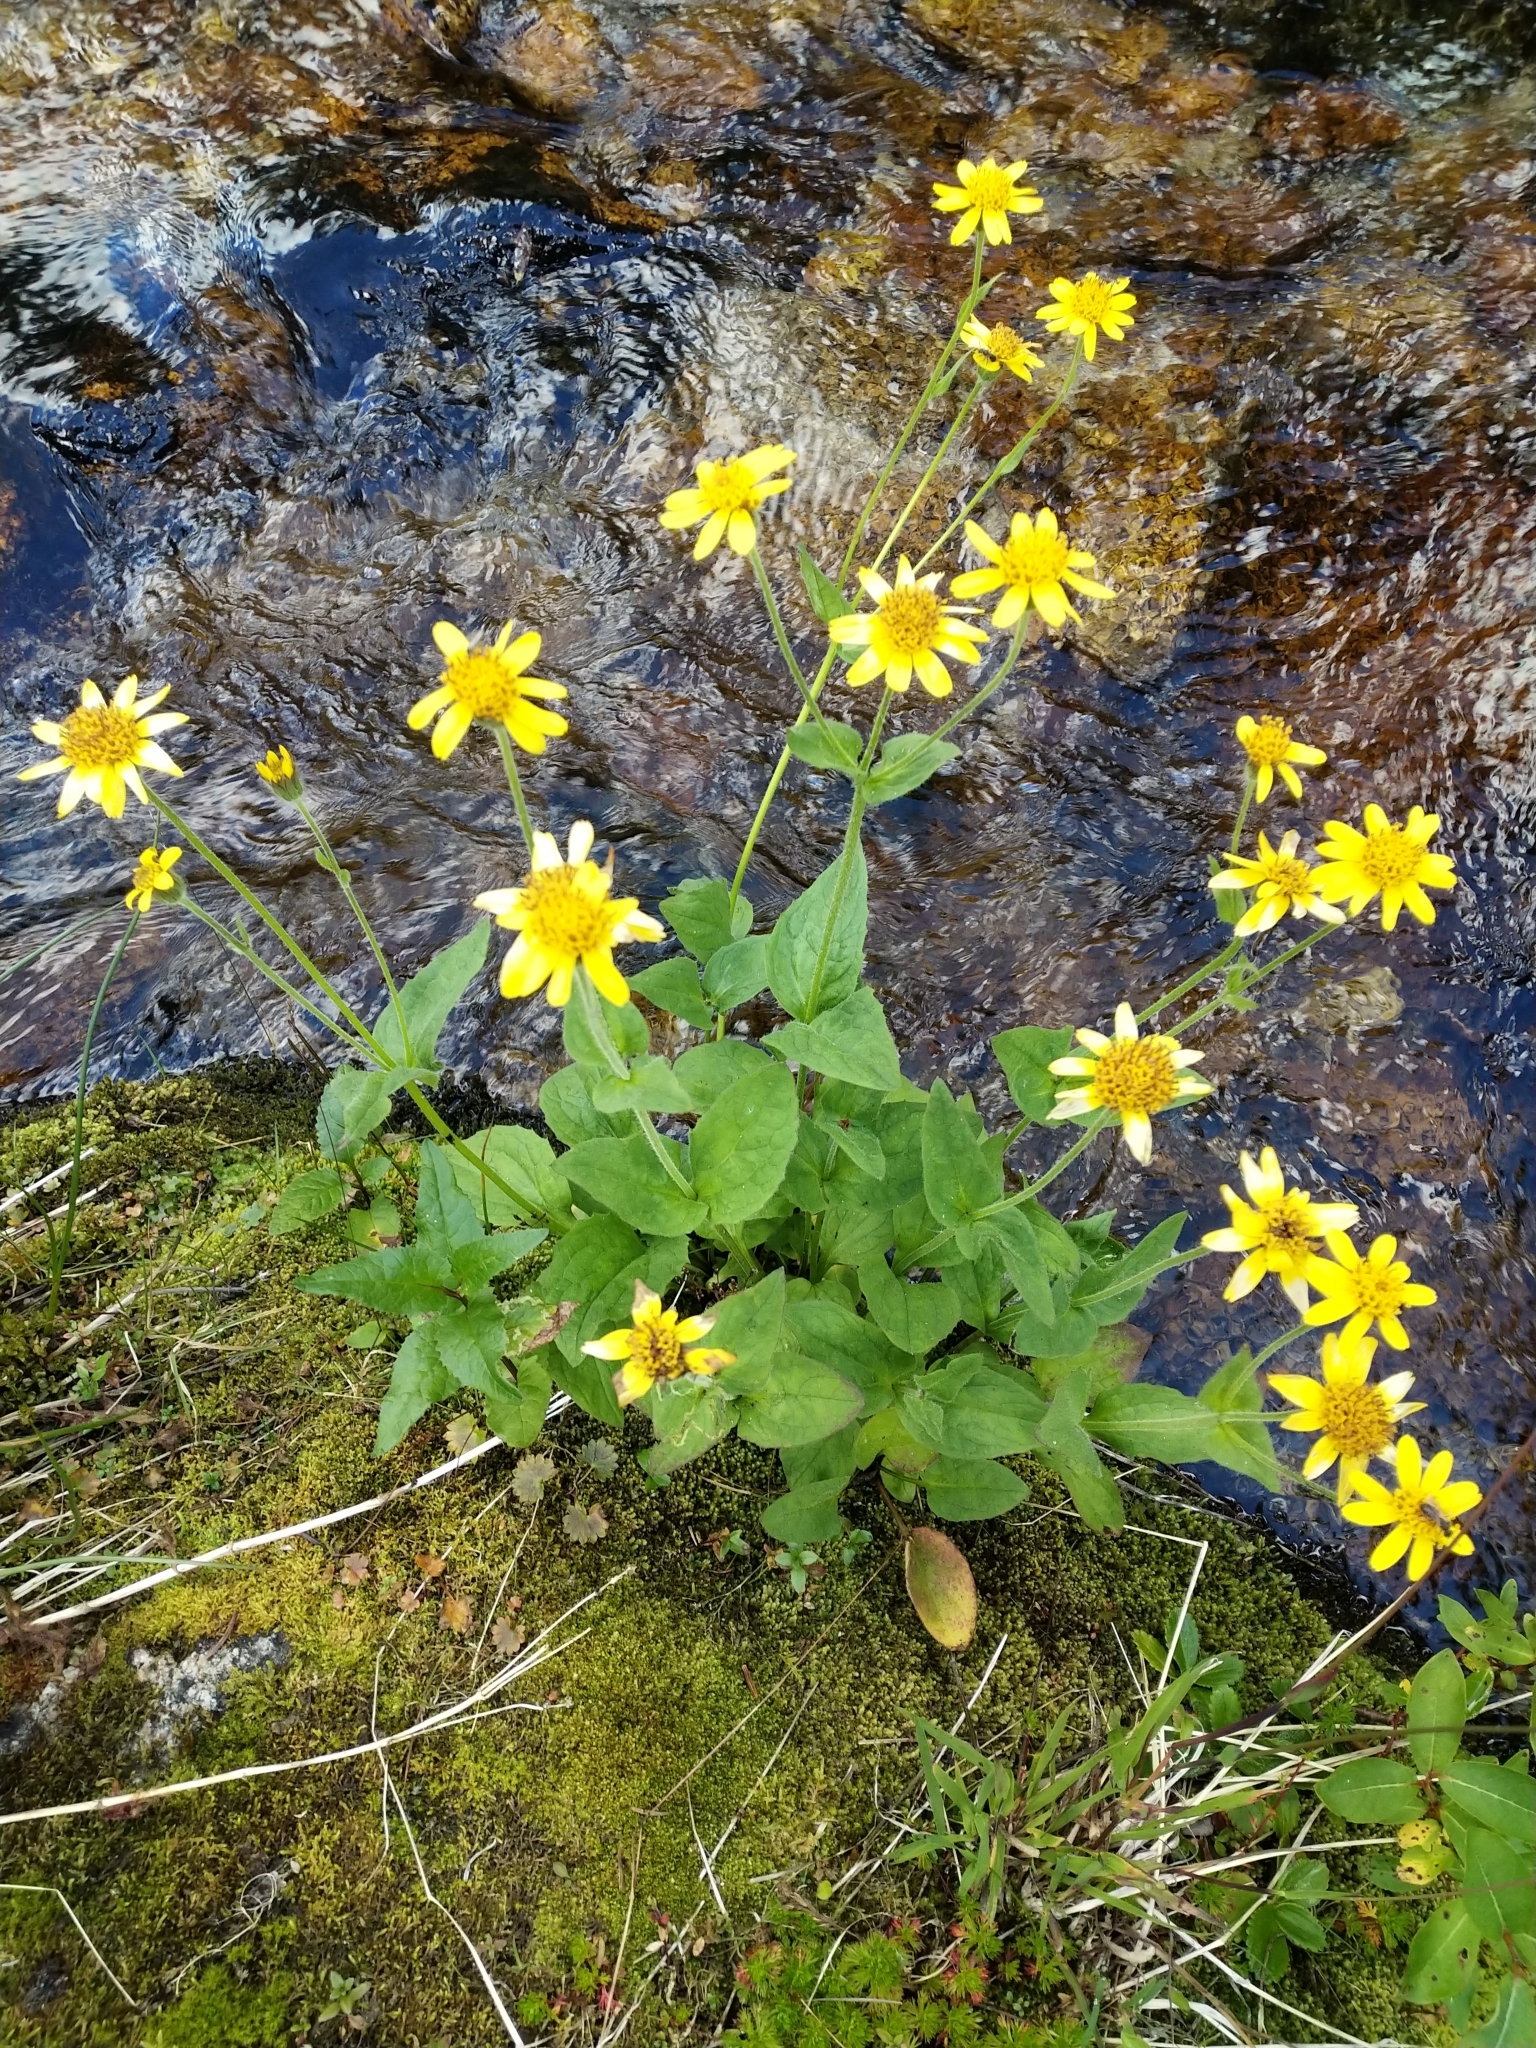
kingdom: Plantae
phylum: Tracheophyta
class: Magnoliopsida
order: Asterales
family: Asteraceae
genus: Arnica
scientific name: Arnica latifolia
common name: Arnica
